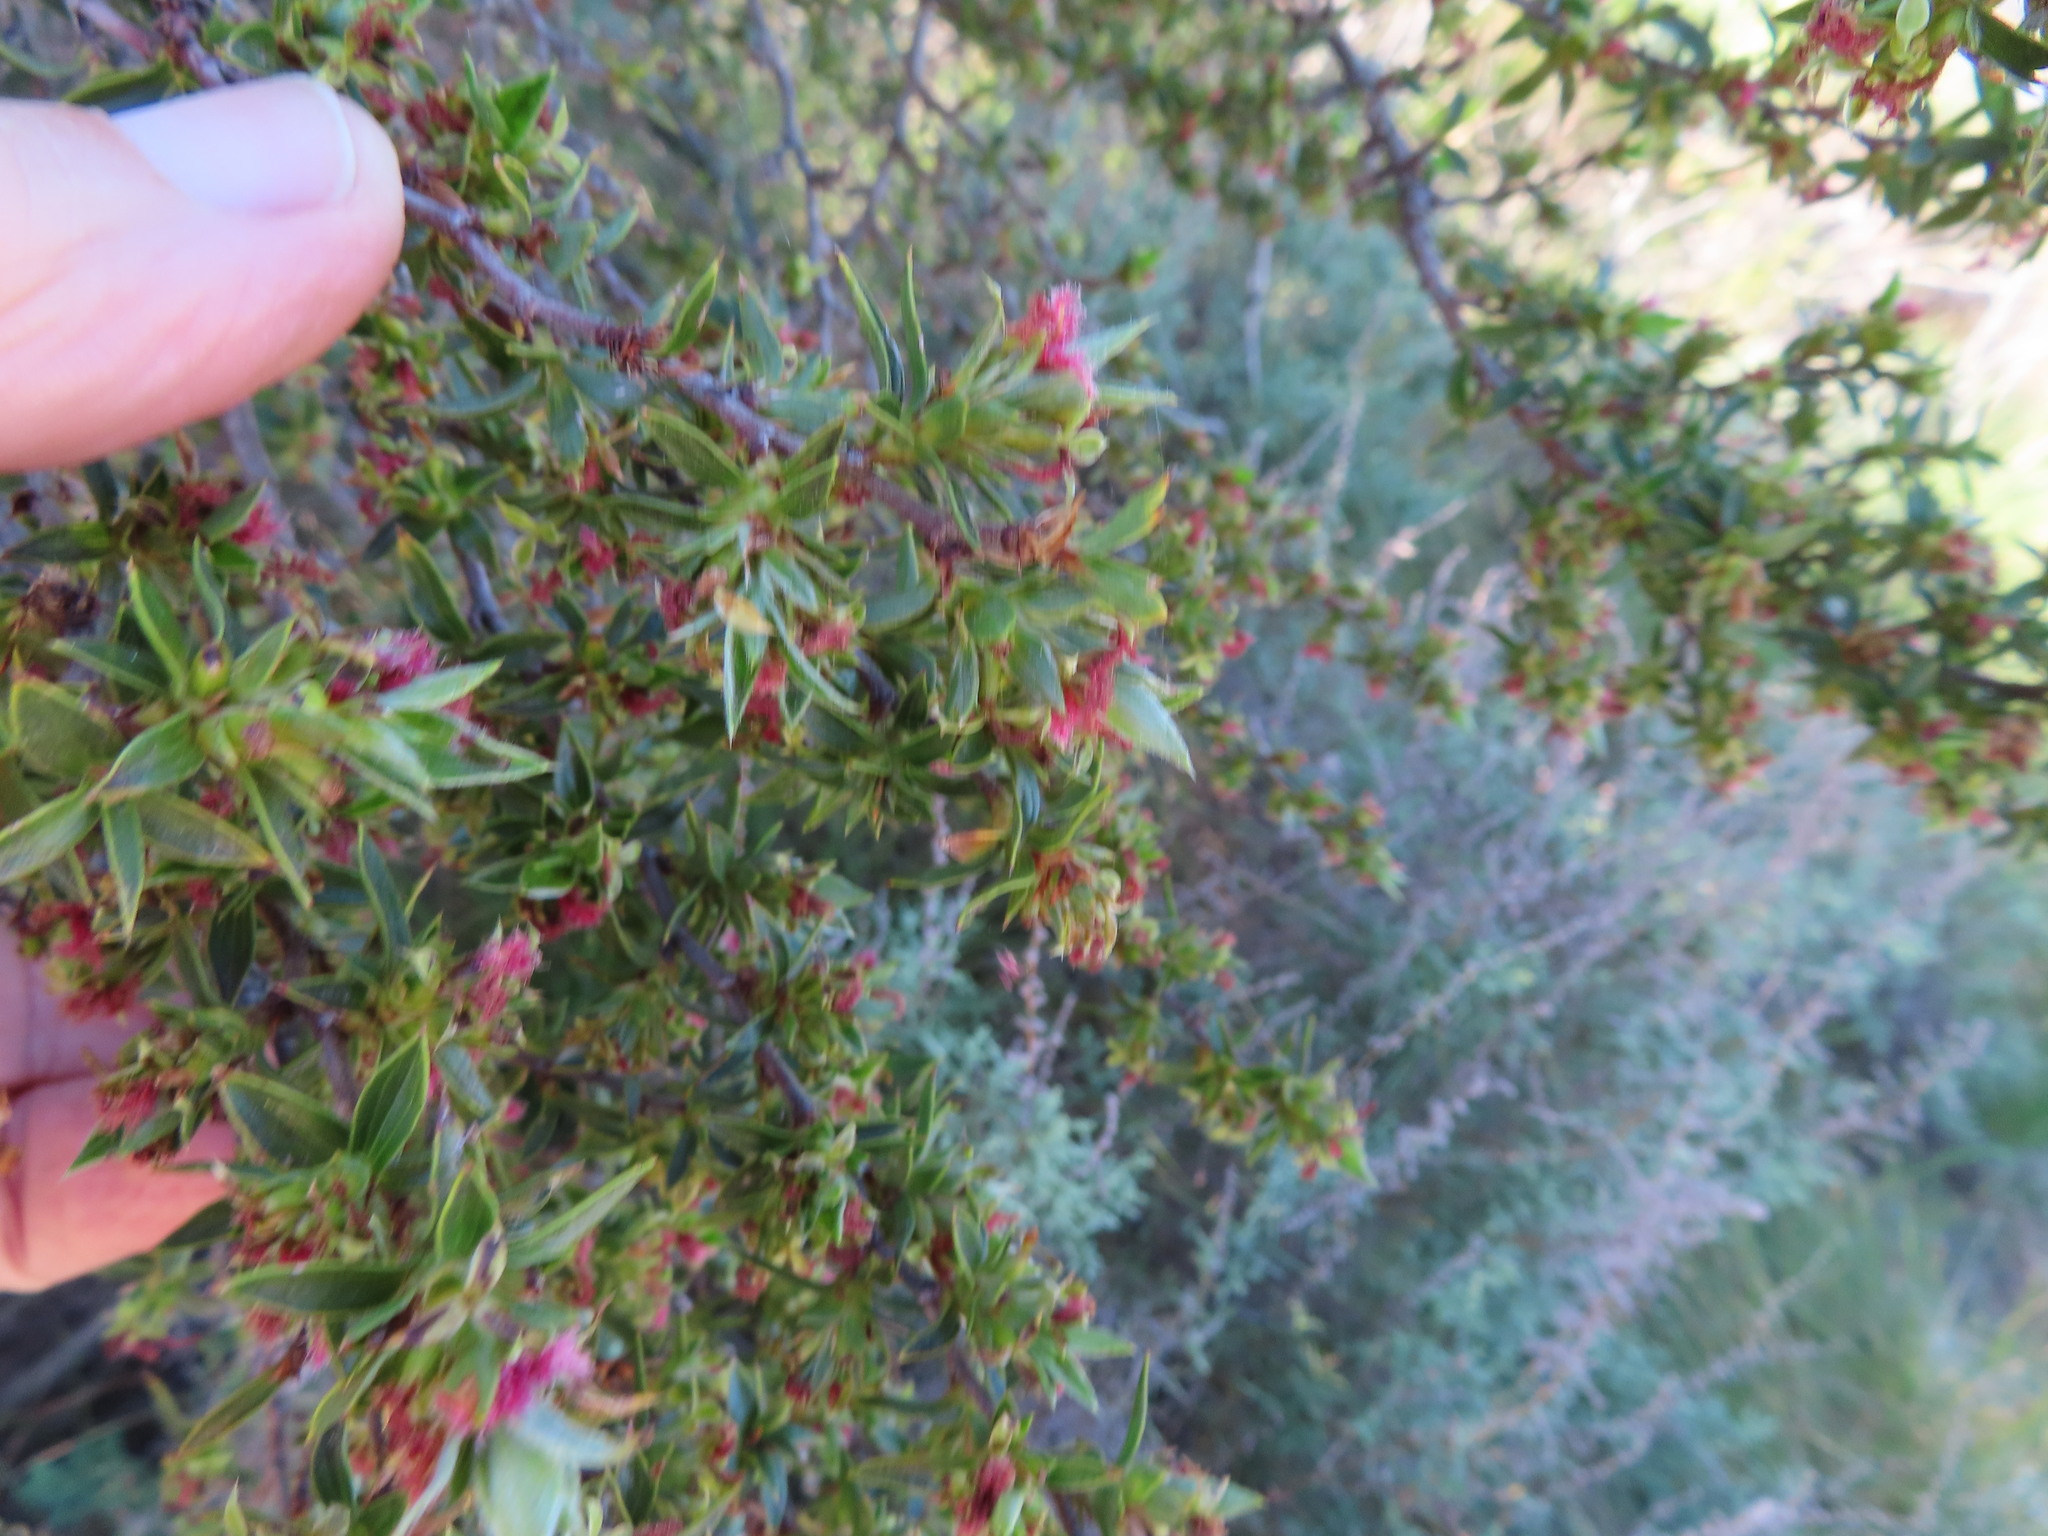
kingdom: Plantae
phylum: Tracheophyta
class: Magnoliopsida
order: Rosales
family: Rosaceae
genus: Cliffortia
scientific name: Cliffortia ruscifolia
